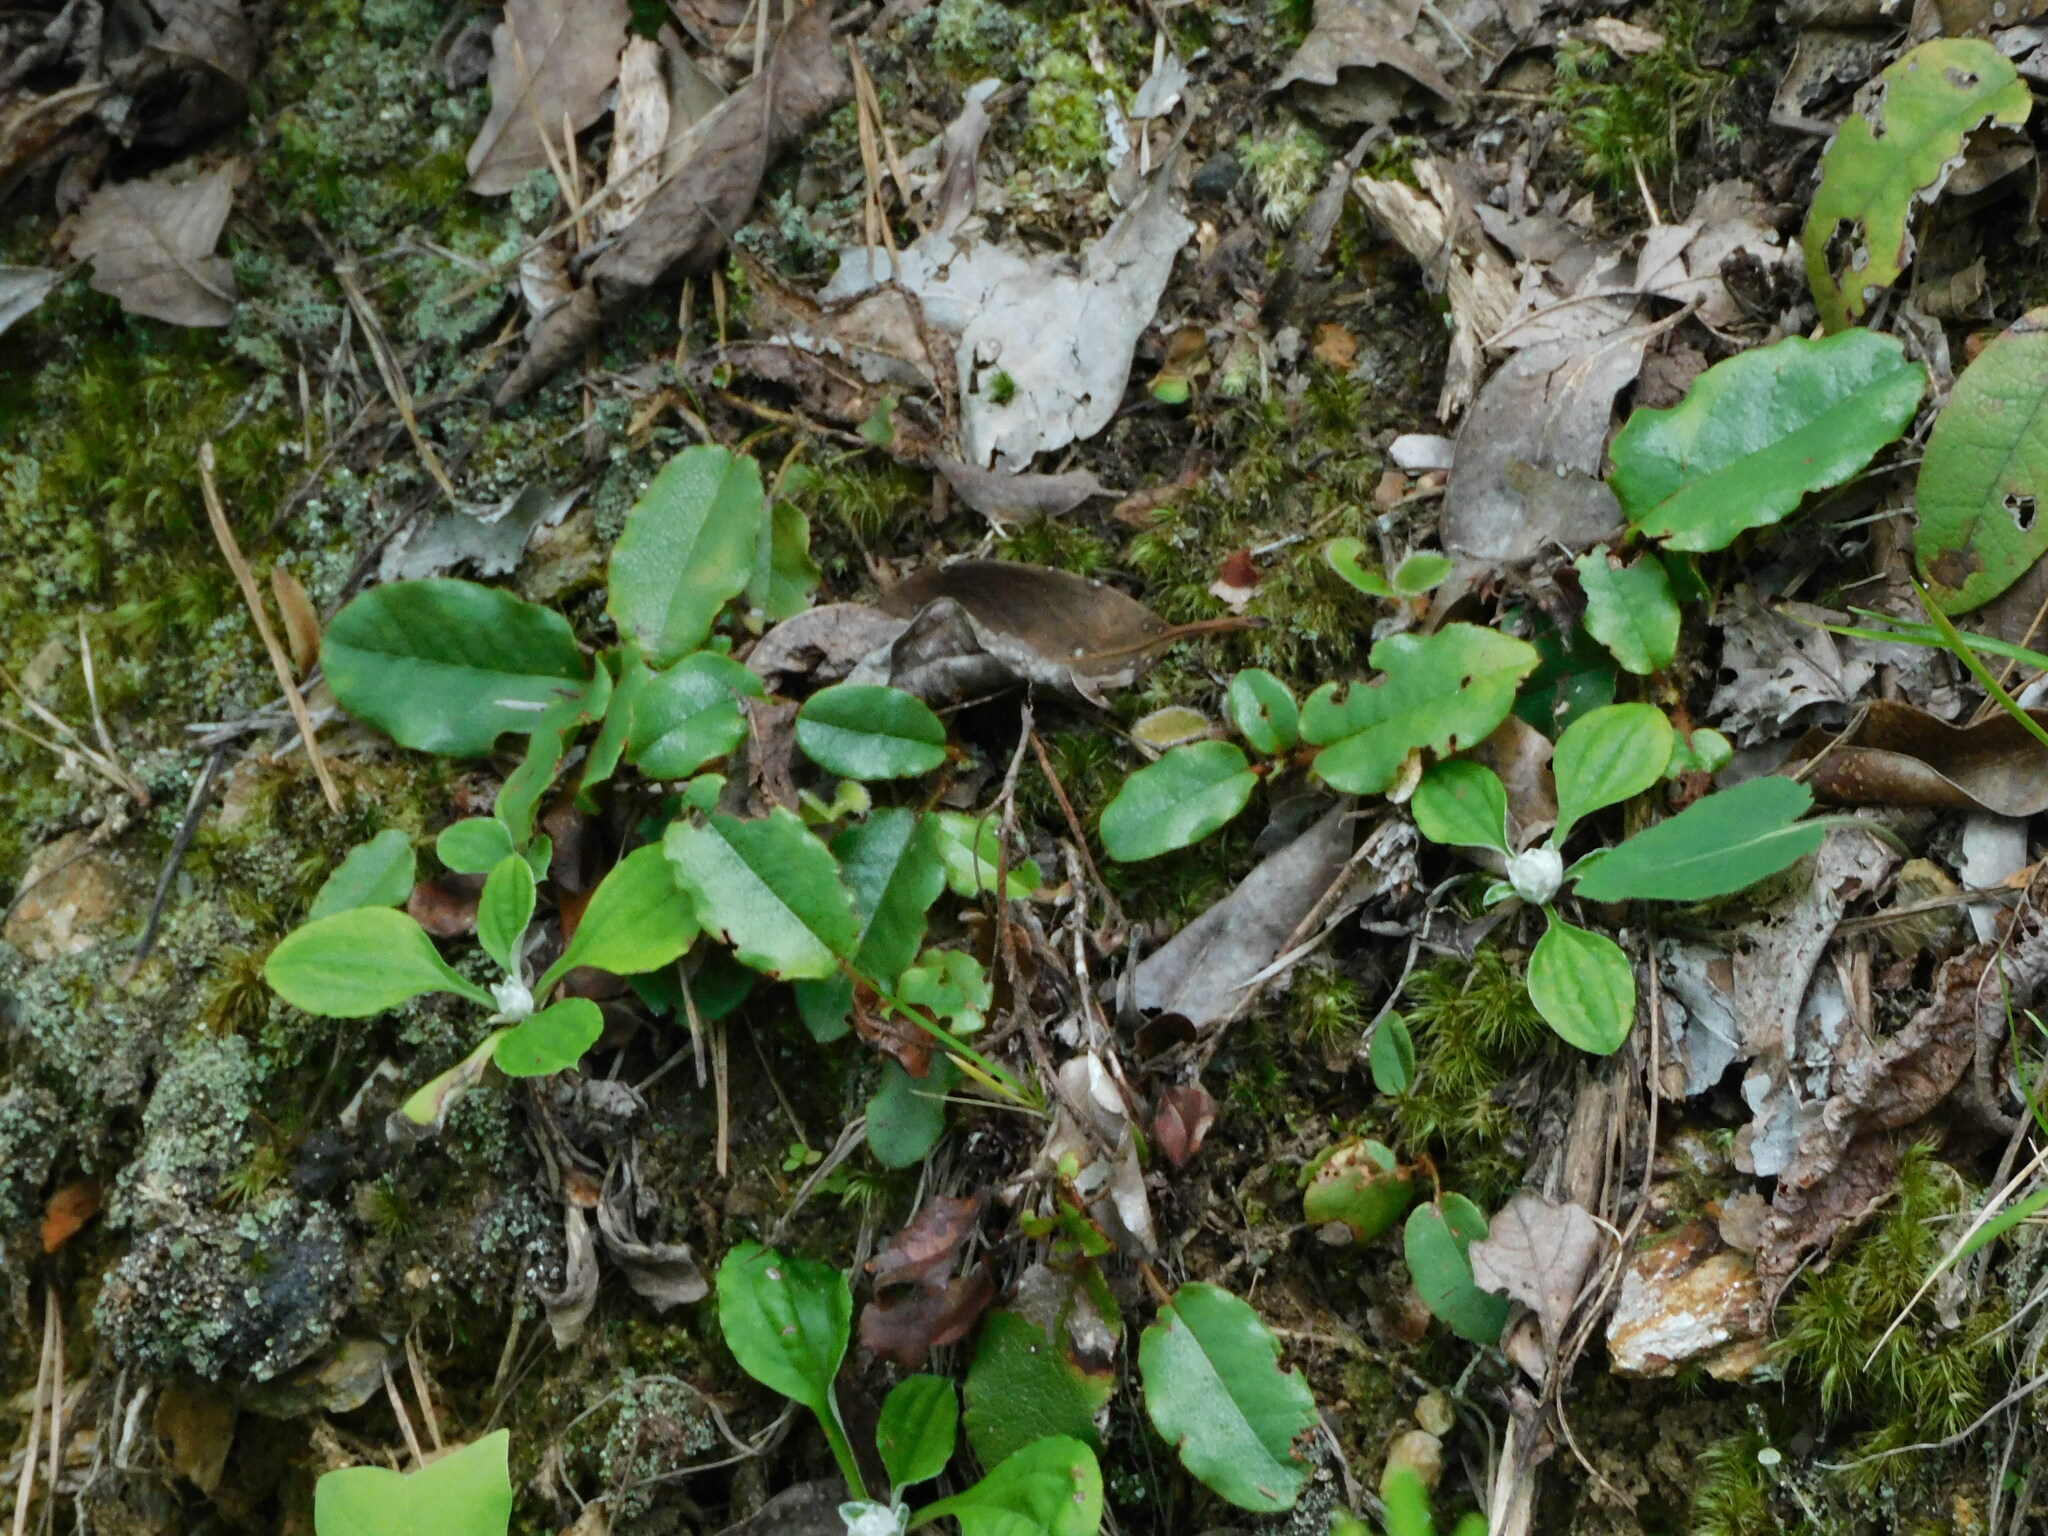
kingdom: Plantae
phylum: Tracheophyta
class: Magnoliopsida
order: Ericales
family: Ericaceae
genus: Epigaea
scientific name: Epigaea repens
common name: Gravelroot
